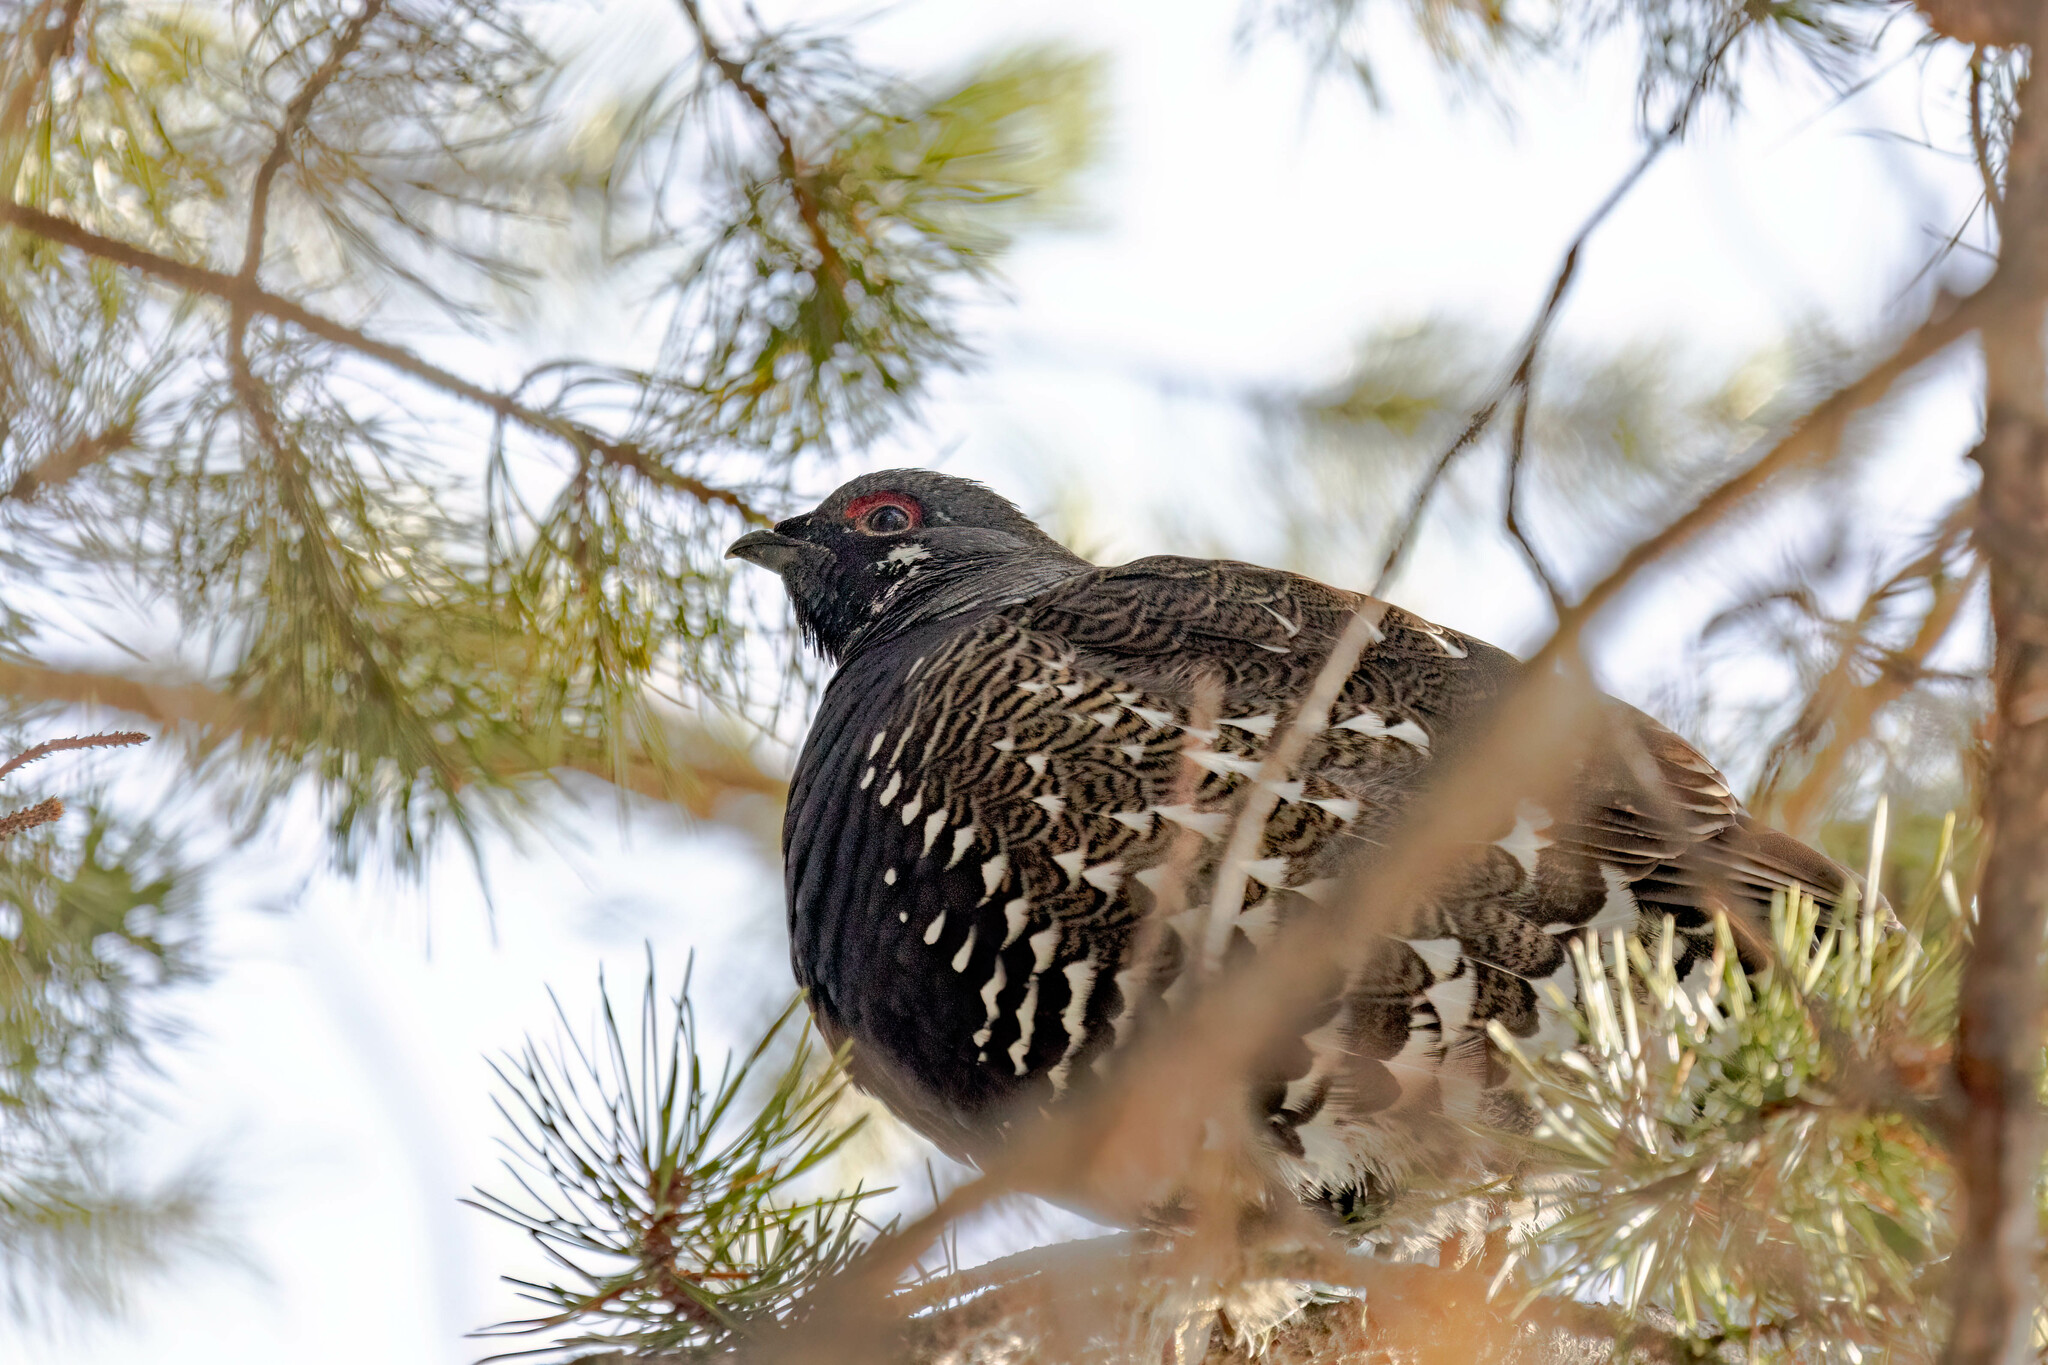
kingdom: Animalia
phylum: Chordata
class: Aves
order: Galliformes
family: Phasianidae
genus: Canachites
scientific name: Canachites canadensis
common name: Spruce grouse
